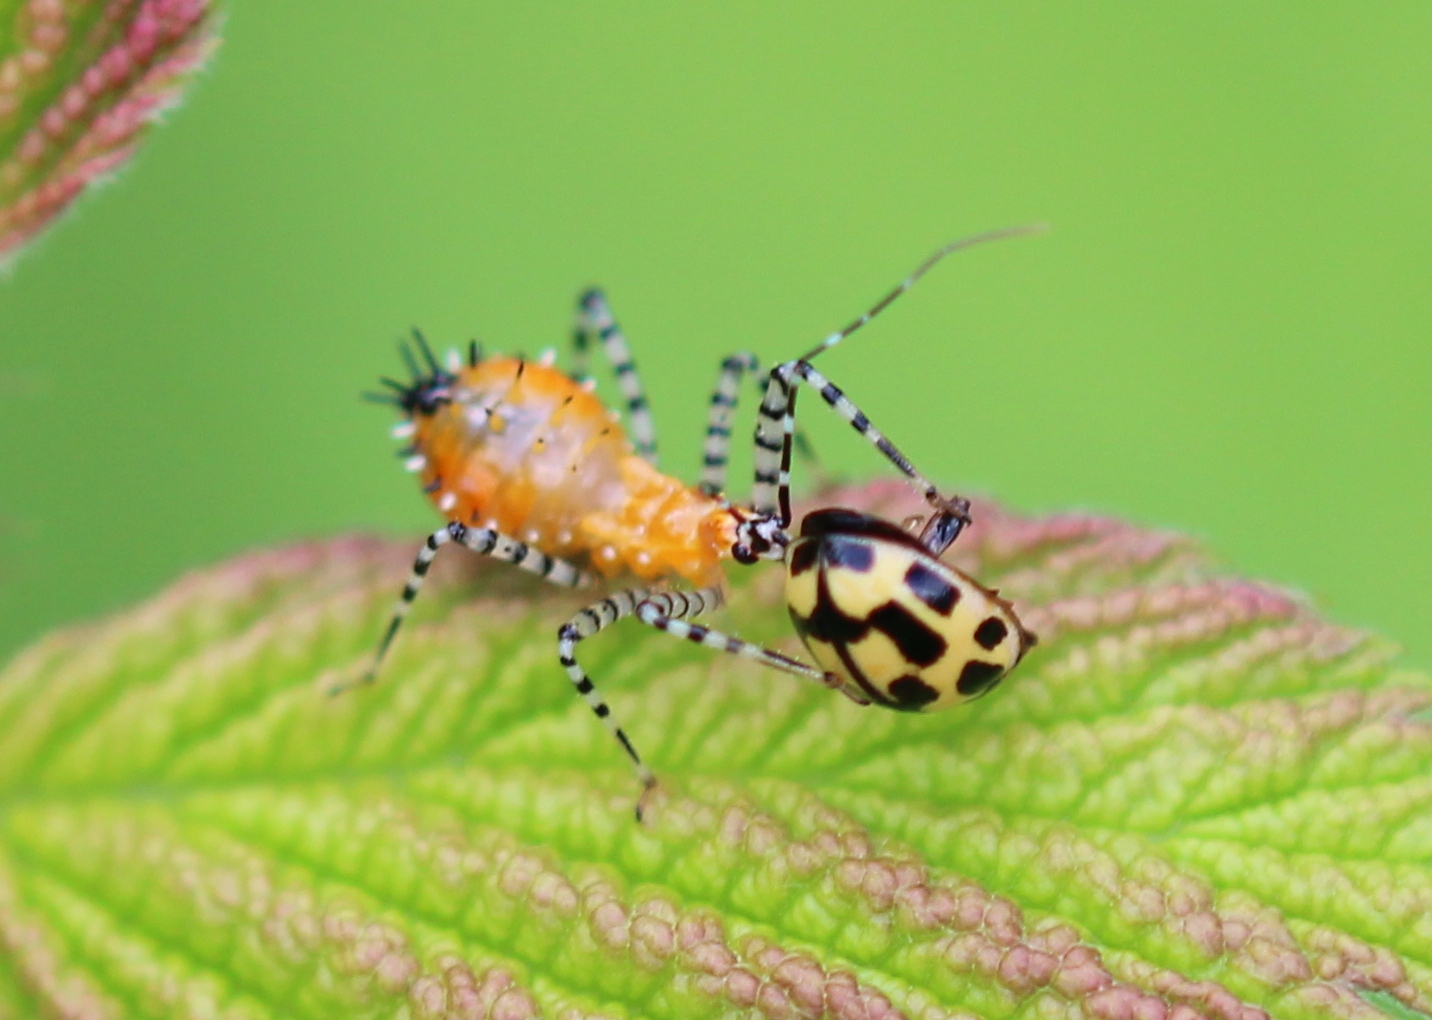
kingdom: Animalia
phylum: Arthropoda
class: Insecta
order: Coleoptera
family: Coccinellidae
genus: Propylaea
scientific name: Propylaea quatuordecimpunctata
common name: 14-spotted ladybird beetle
